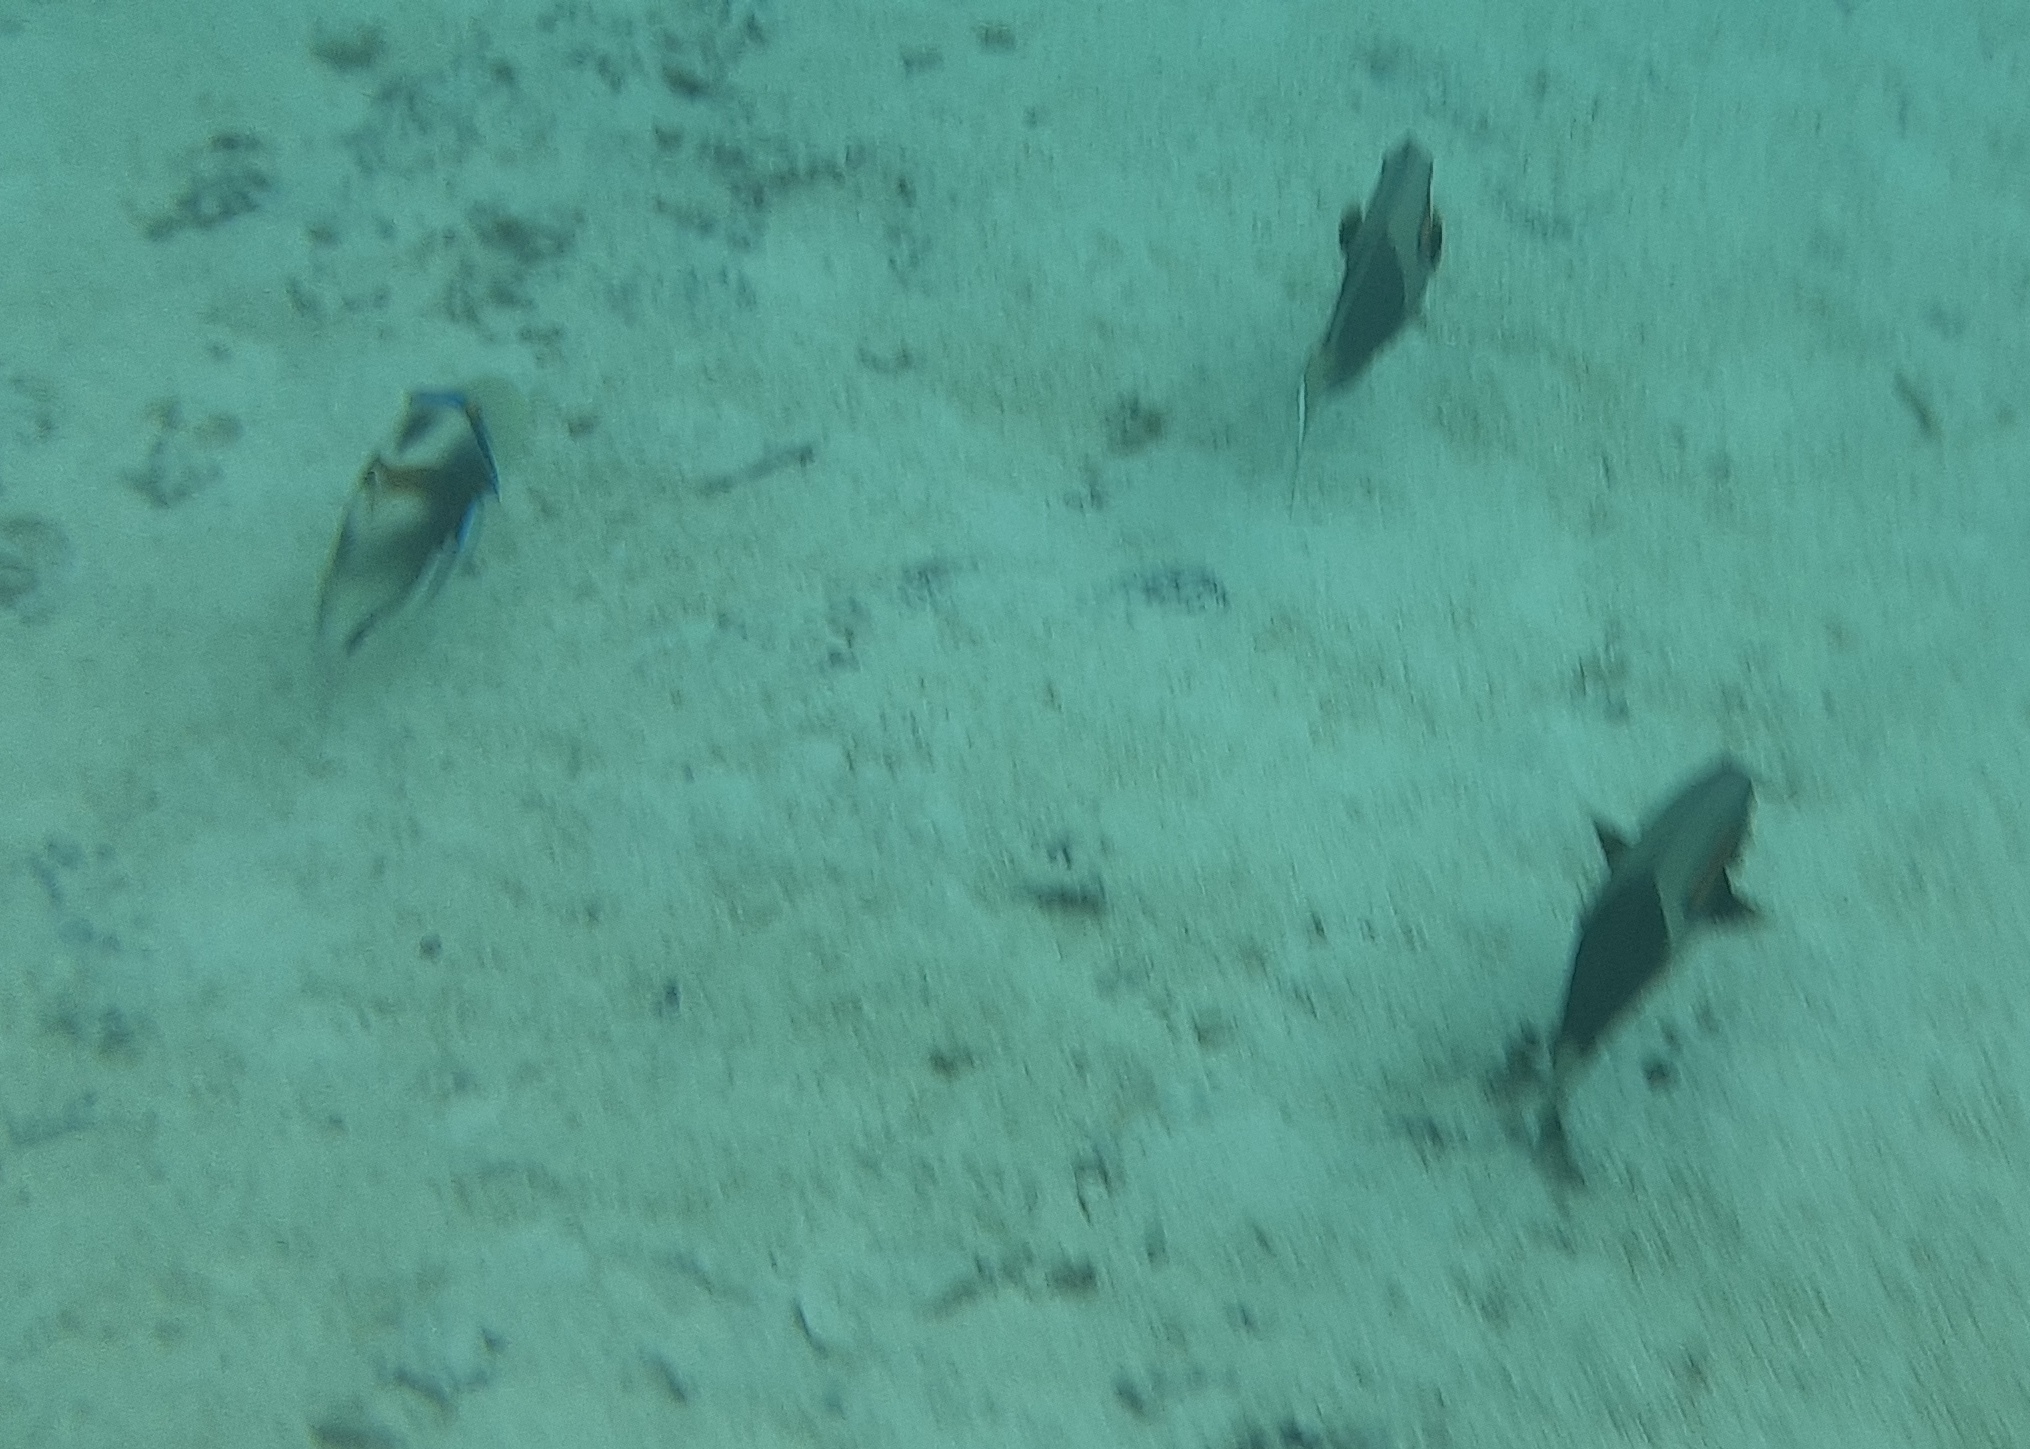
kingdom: Animalia
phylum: Chordata
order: Perciformes
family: Acanthuridae
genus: Acanthurus
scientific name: Acanthurus olivaceus
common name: Gendarme fish
